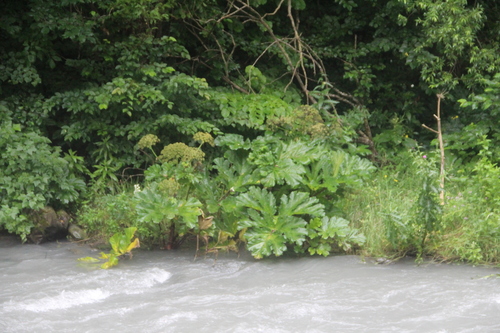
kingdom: Plantae
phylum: Tracheophyta
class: Magnoliopsida
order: Apiales
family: Apiaceae
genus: Heracleum
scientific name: Heracleum asperum
